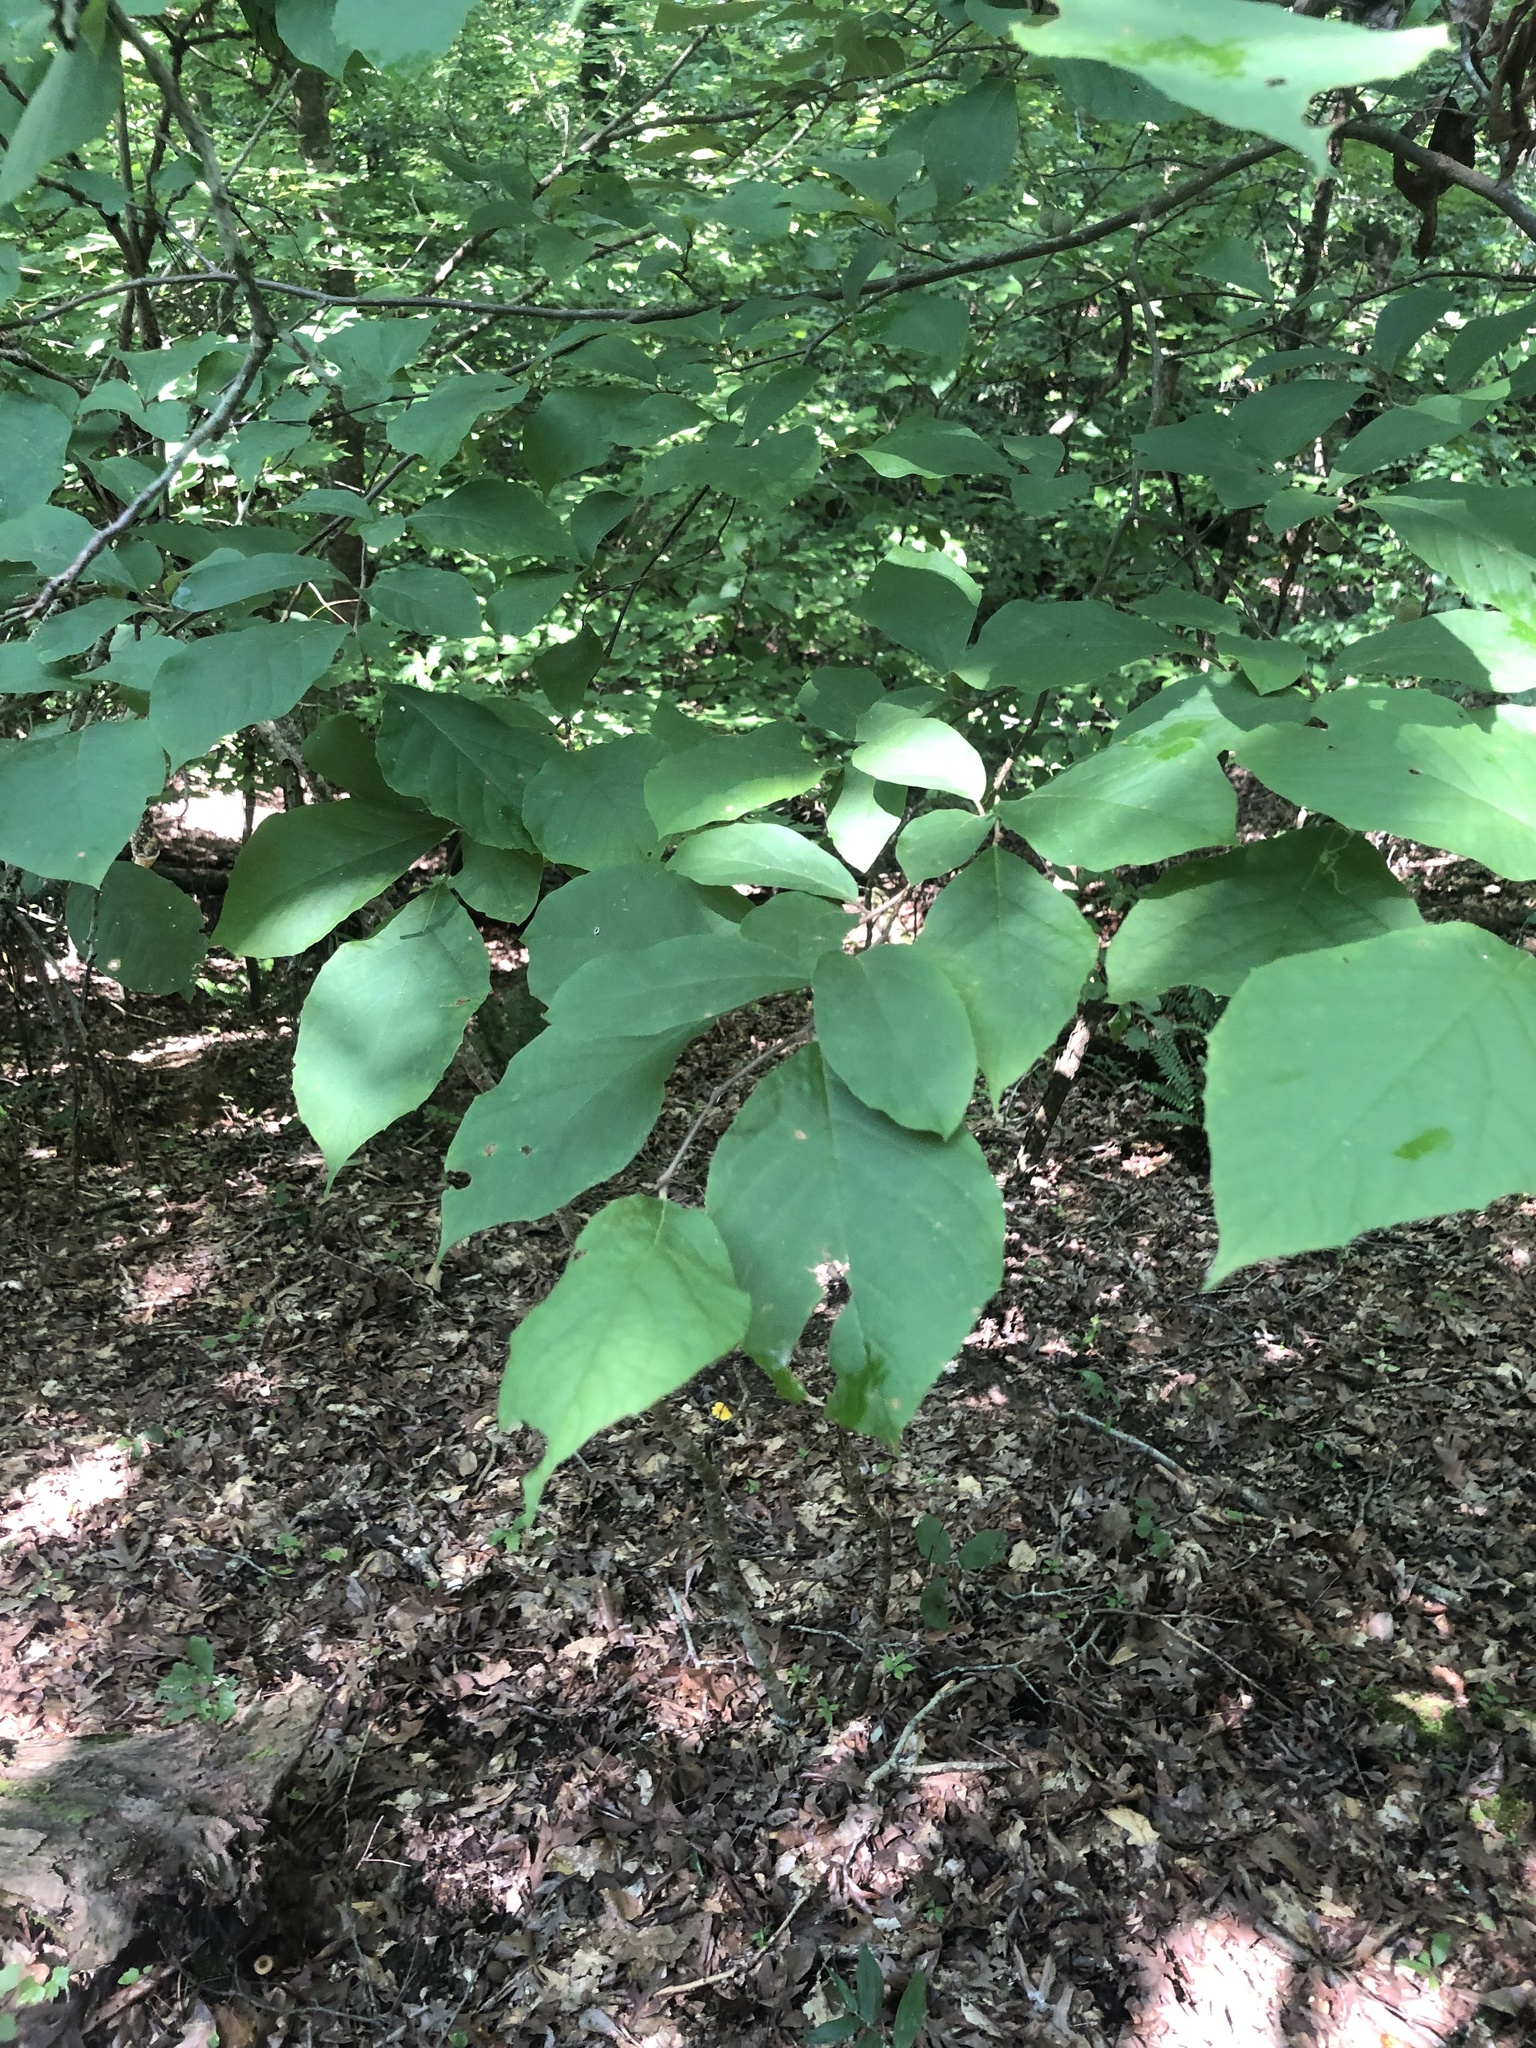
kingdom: Plantae
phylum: Tracheophyta
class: Magnoliopsida
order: Ericales
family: Styracaceae
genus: Styrax
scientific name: Styrax grandifolius
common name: Big-leaf snowbell
